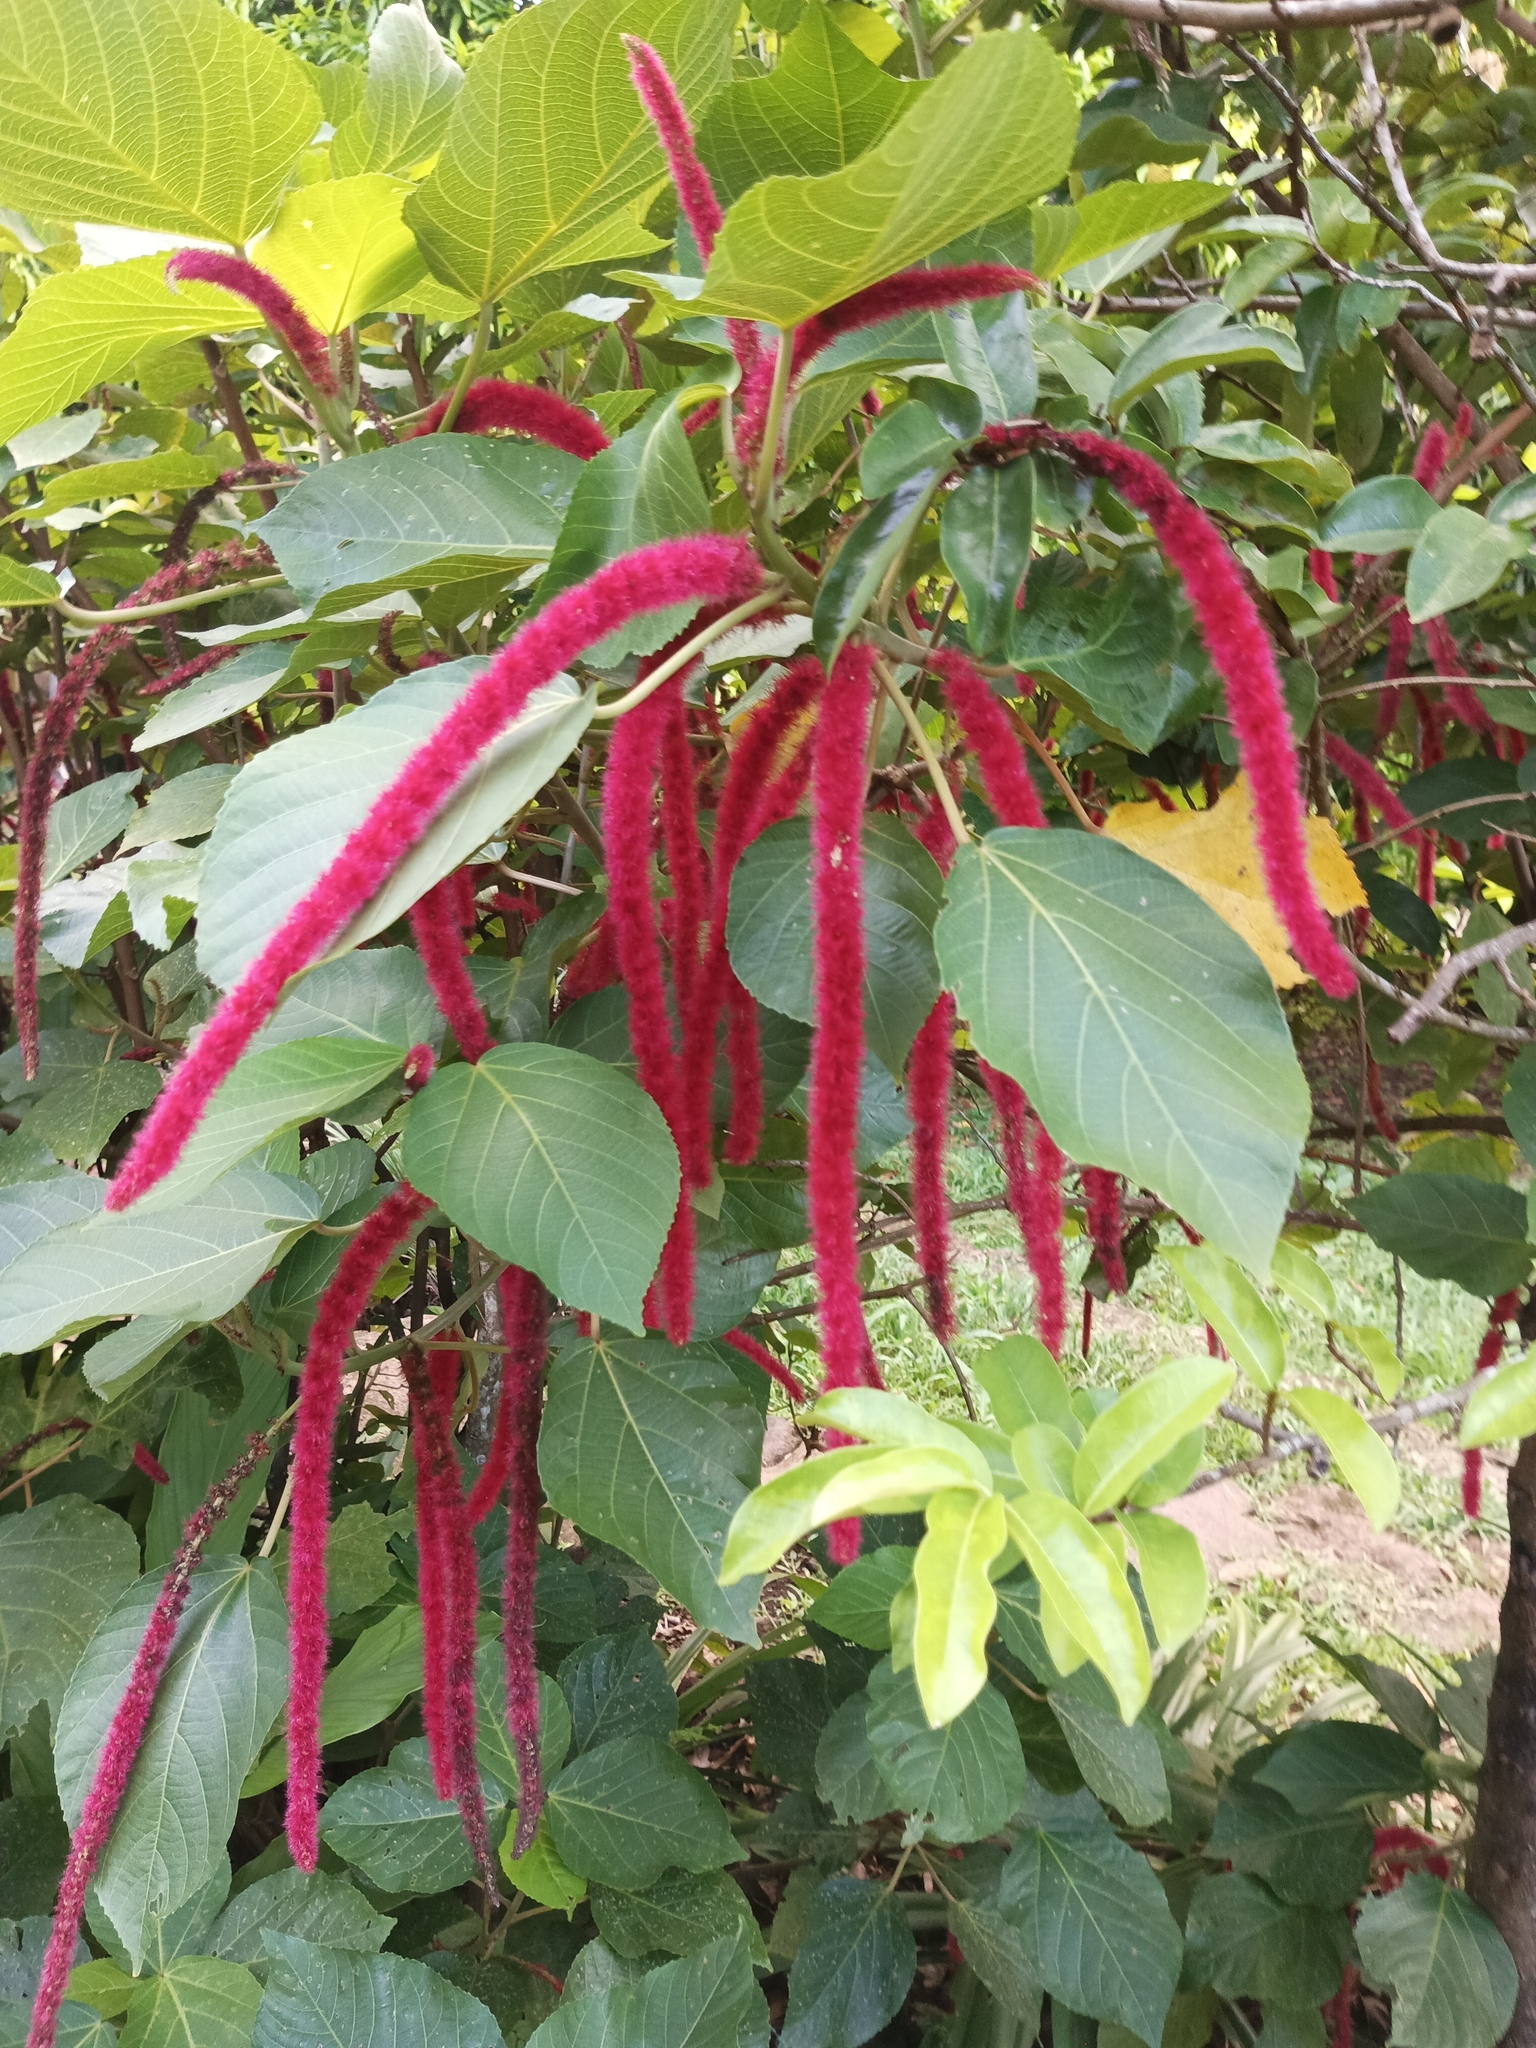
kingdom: Plantae
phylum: Tracheophyta
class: Magnoliopsida
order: Malpighiales
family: Euphorbiaceae
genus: Acalypha
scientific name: Acalypha hispida
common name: Chenilleplant
